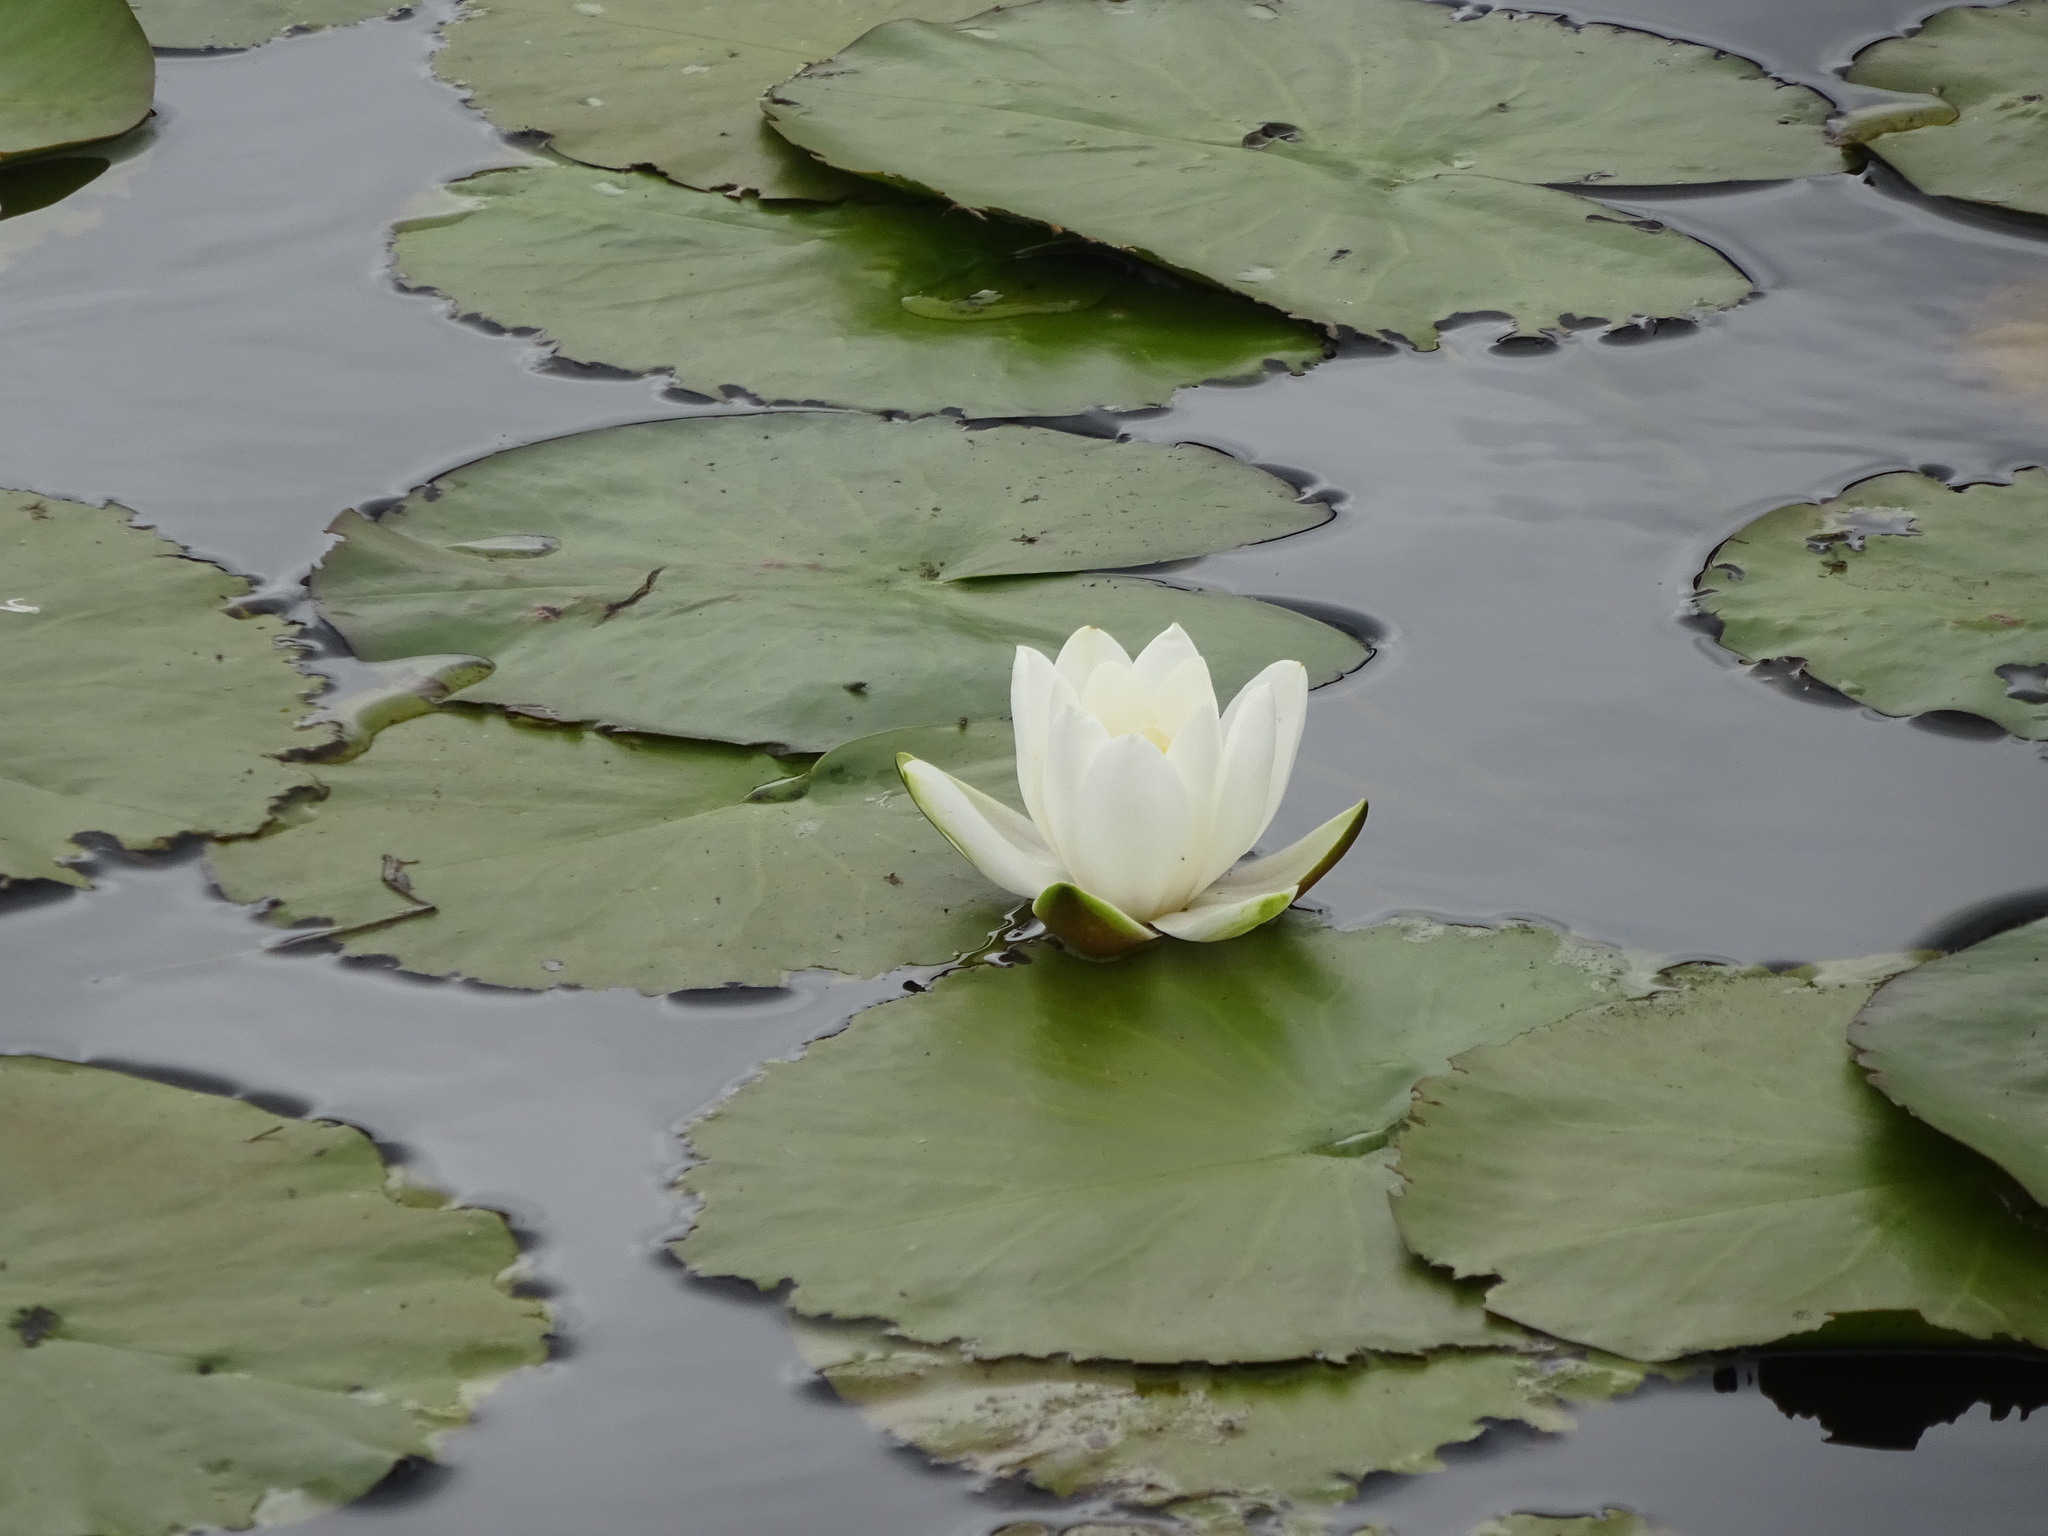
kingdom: Plantae
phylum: Tracheophyta
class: Magnoliopsida
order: Nymphaeales
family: Nymphaeaceae
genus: Nymphaea
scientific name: Nymphaea alba
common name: White water-lily
